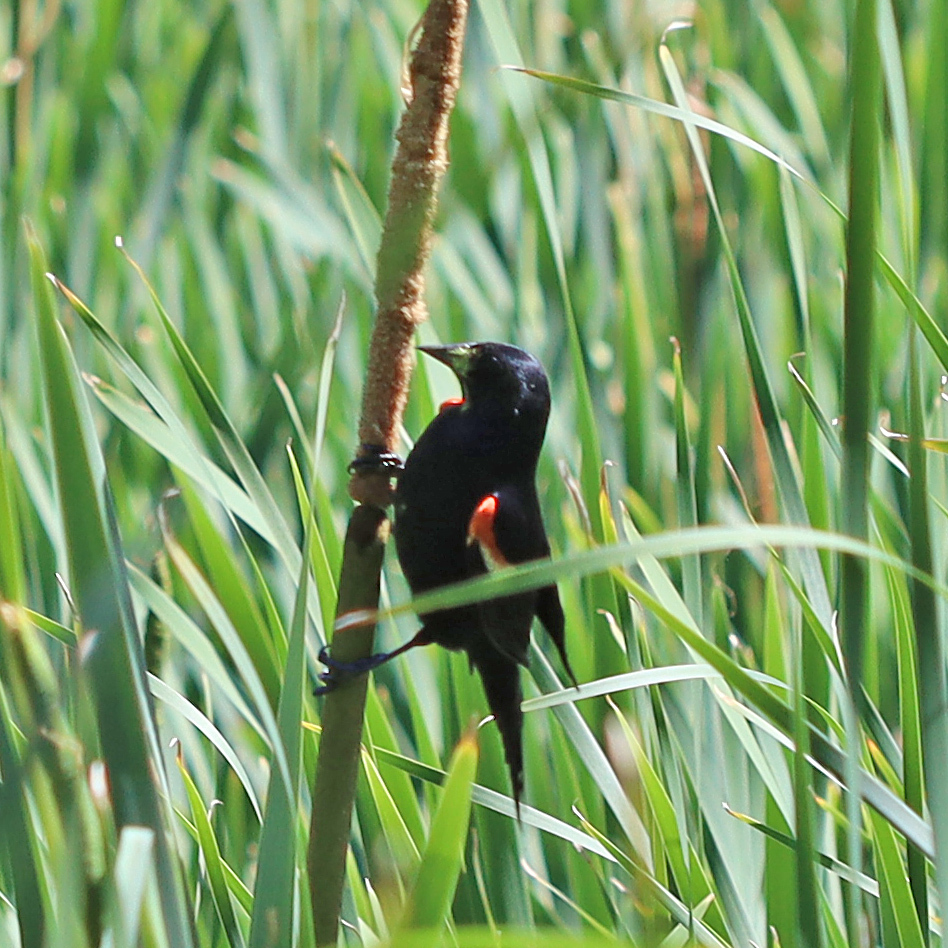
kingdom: Animalia
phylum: Chordata
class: Aves
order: Passeriformes
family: Icteridae
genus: Agelaius
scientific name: Agelaius phoeniceus
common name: Red-winged blackbird
